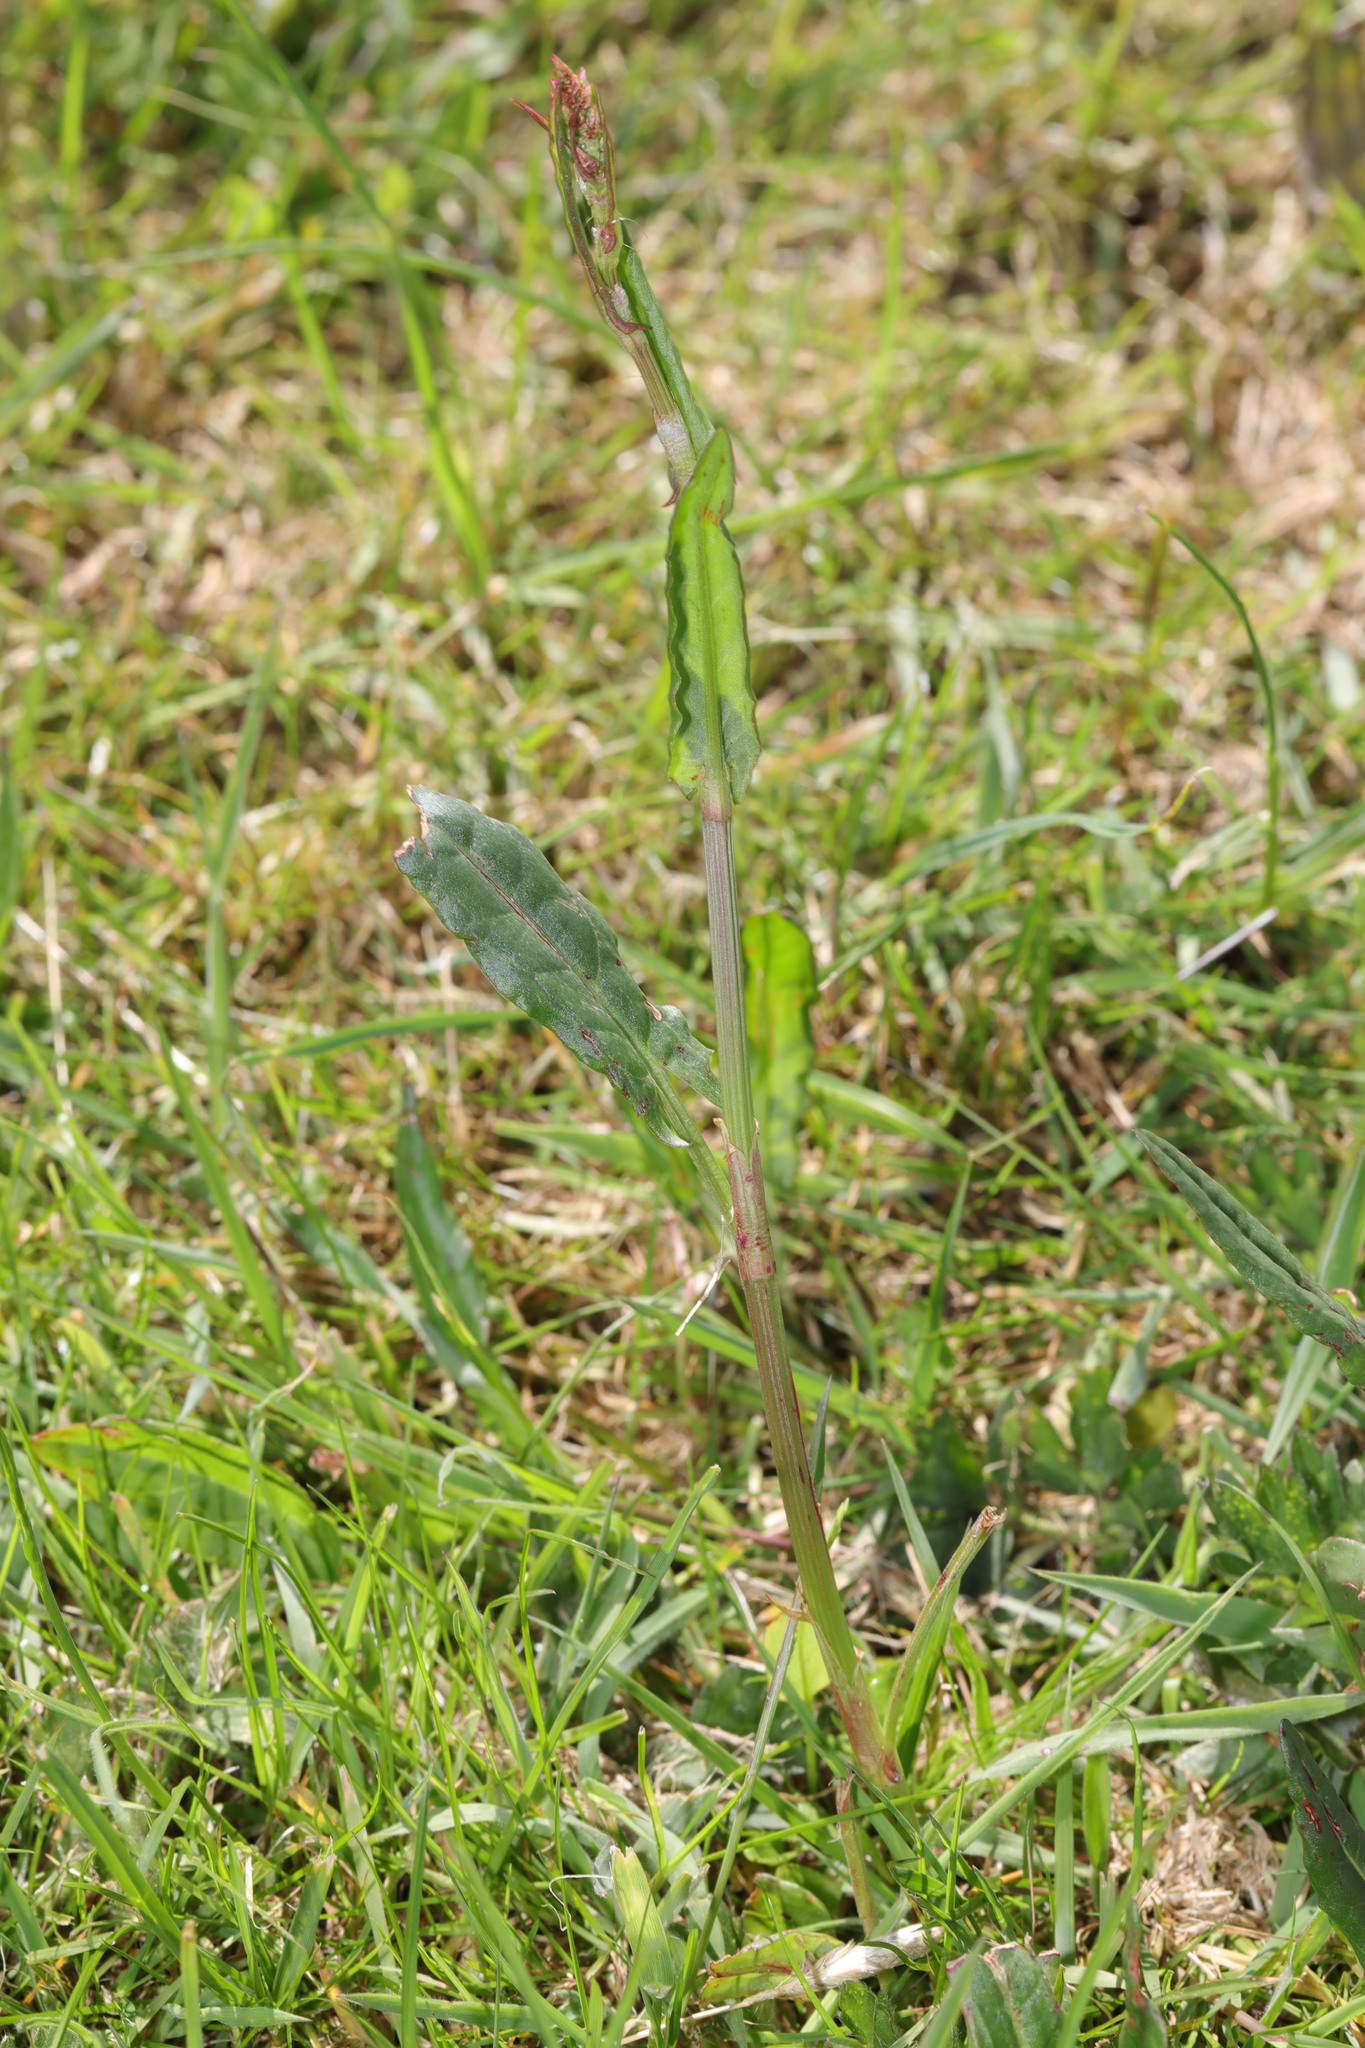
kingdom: Plantae
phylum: Tracheophyta
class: Magnoliopsida
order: Caryophyllales
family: Polygonaceae
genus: Rumex
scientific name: Rumex acetosa
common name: Garden sorrel
